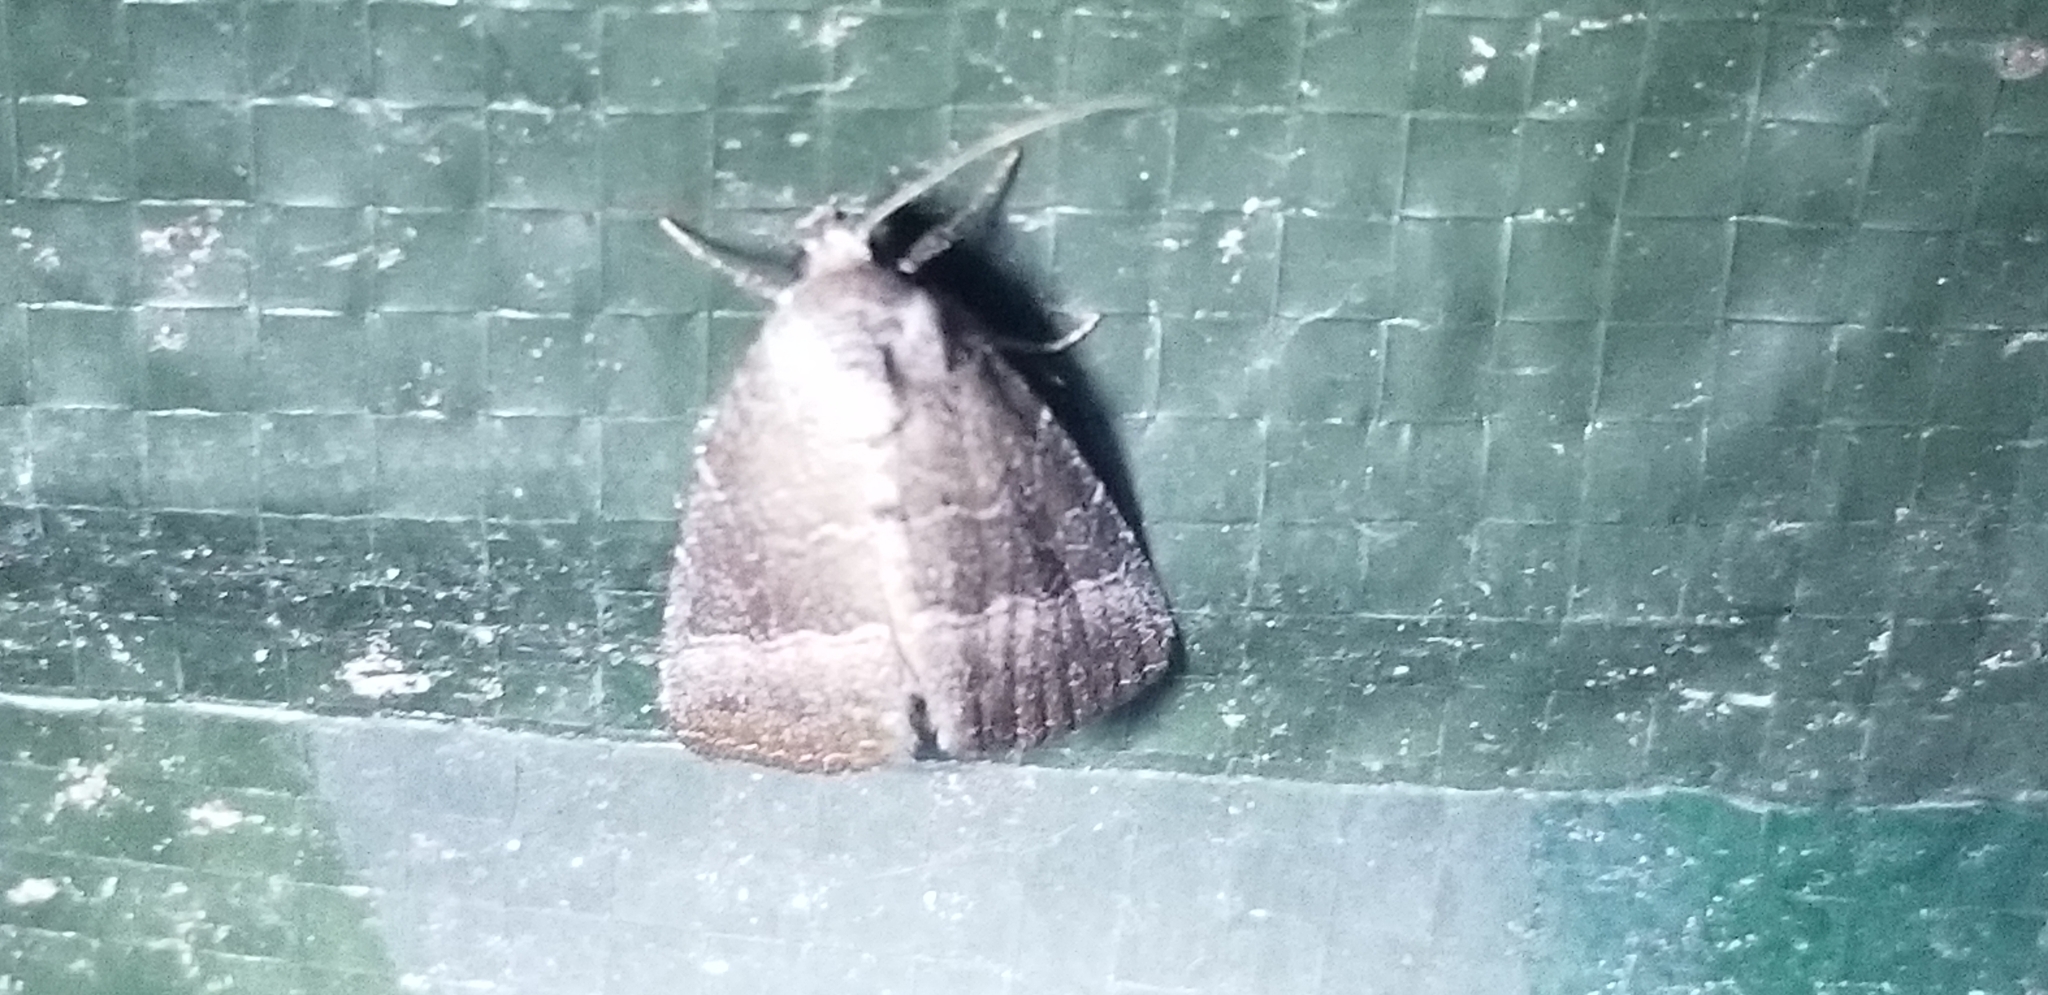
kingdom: Animalia
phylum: Arthropoda
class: Insecta
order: Lepidoptera
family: Noctuidae
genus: Ogdoconta
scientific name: Ogdoconta cinereola
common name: Common pinkband
